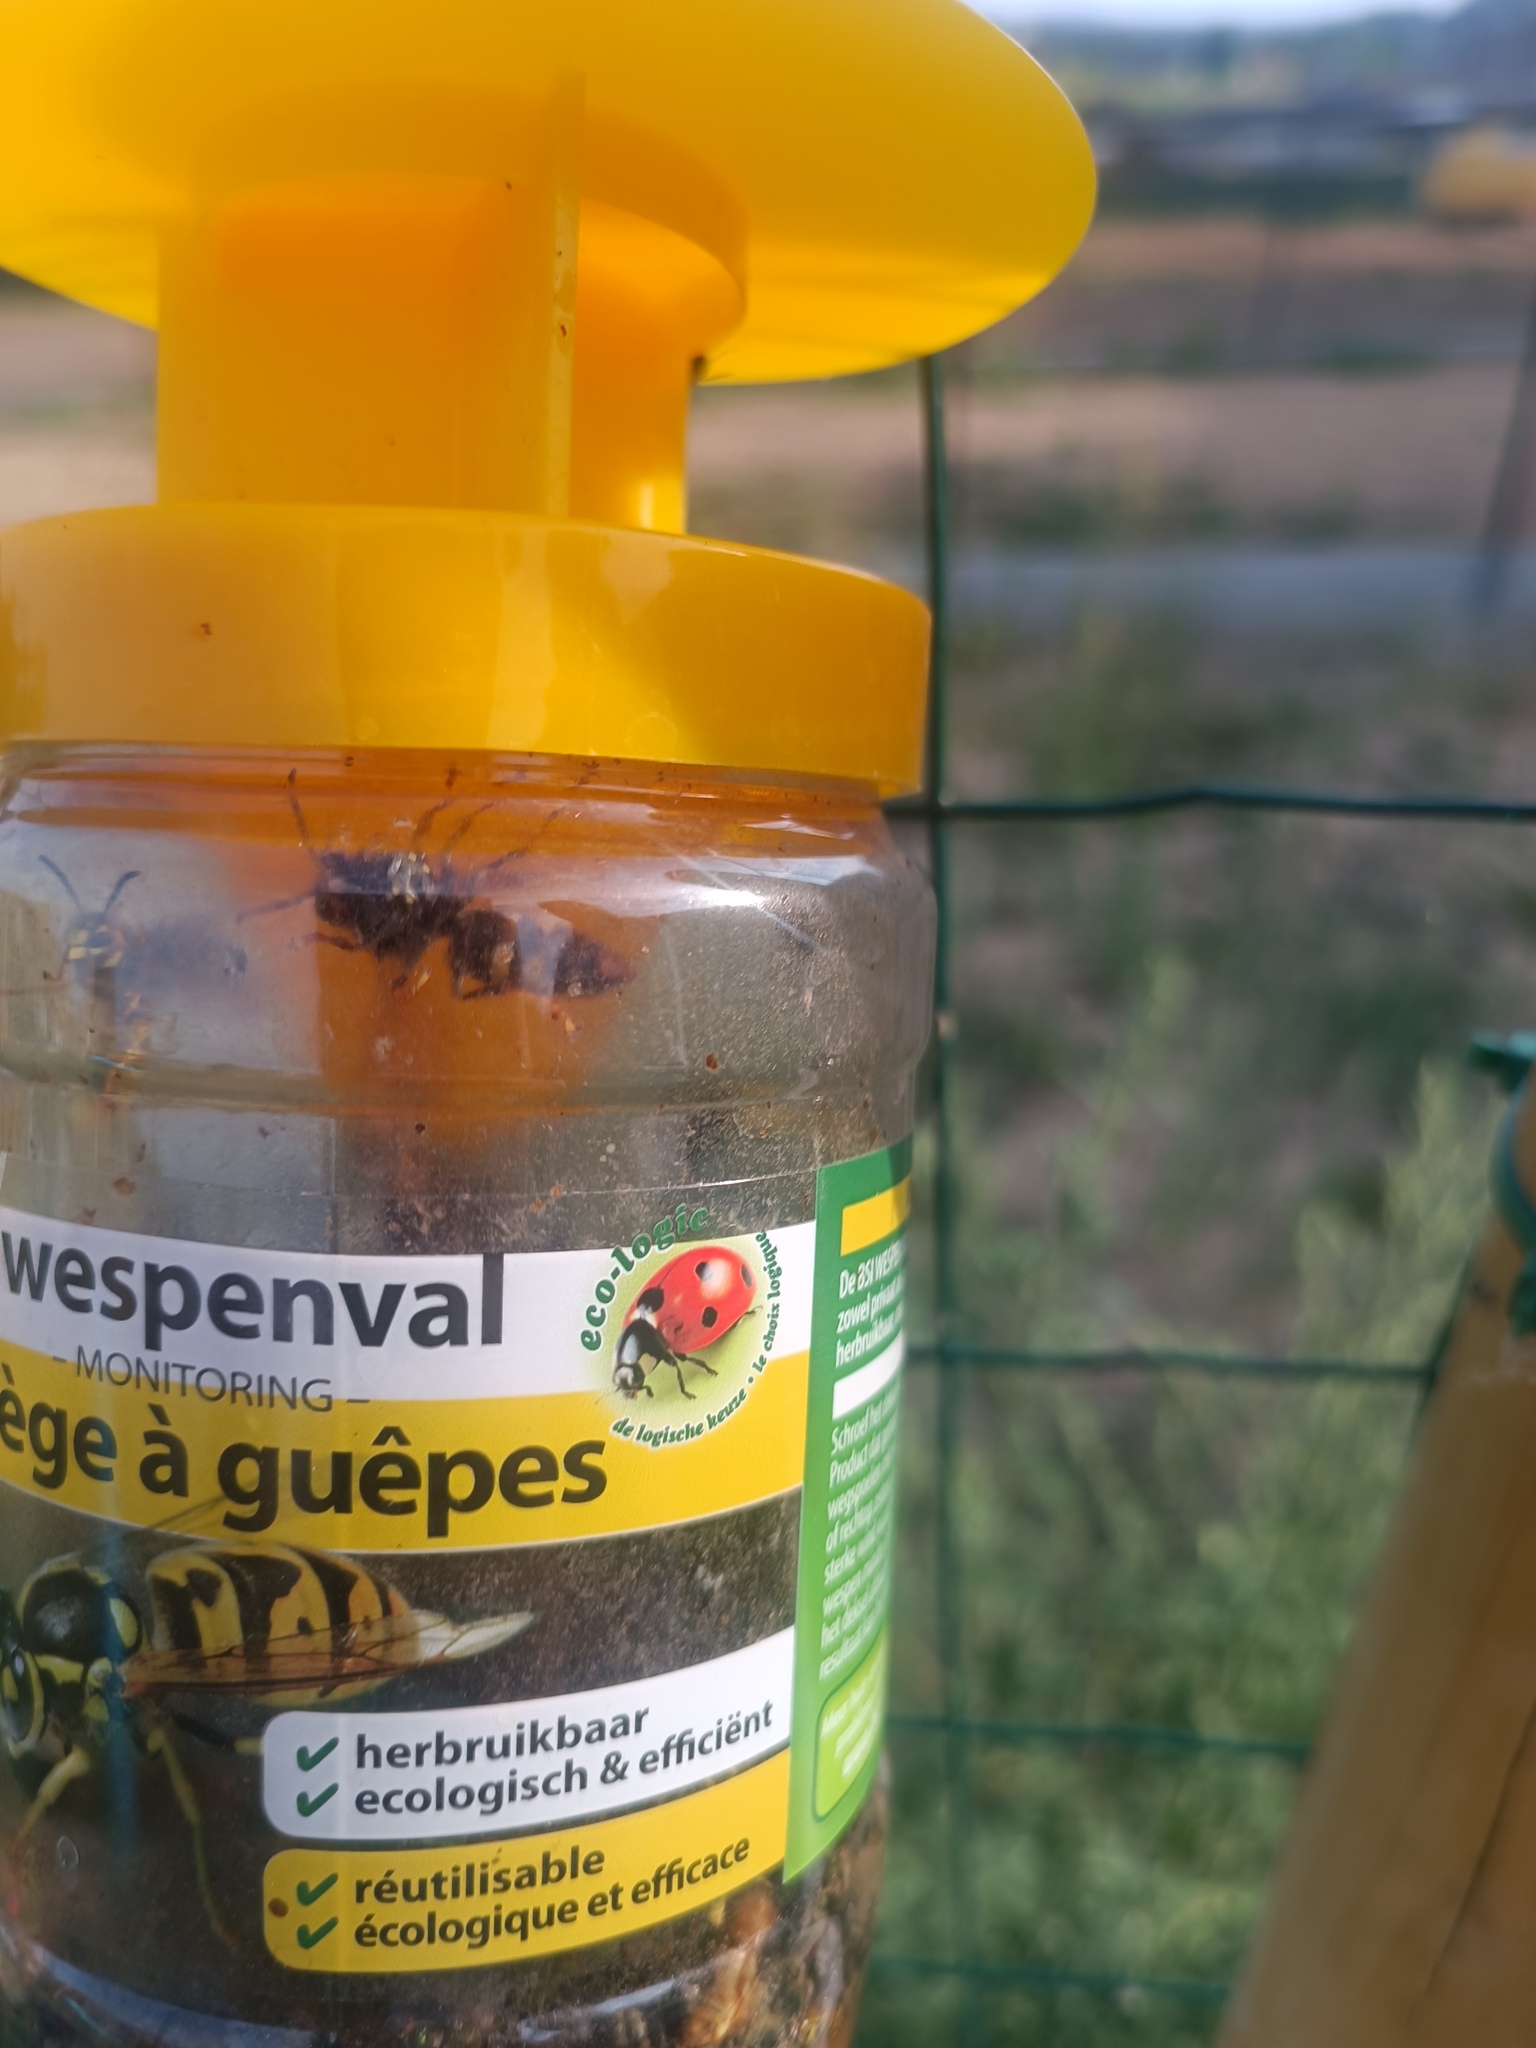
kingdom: Animalia
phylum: Arthropoda
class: Insecta
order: Hymenoptera
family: Vespidae
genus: Vespa
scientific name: Vespa velutina
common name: Asian hornet
